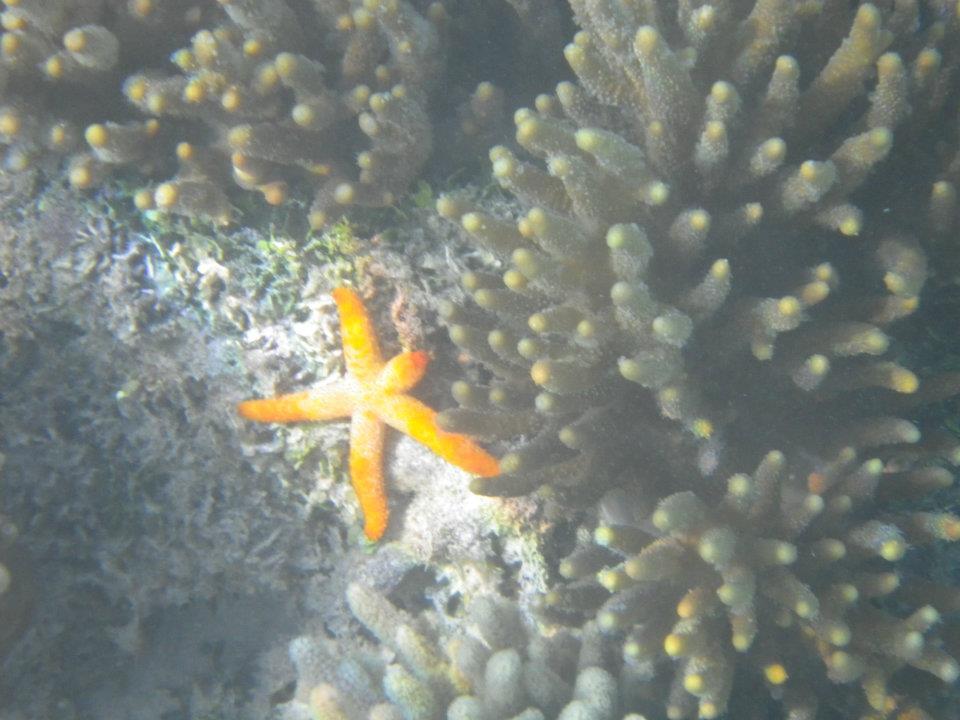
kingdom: Animalia
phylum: Echinodermata
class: Asteroidea
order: Spinulosida
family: Echinasteridae
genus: Echinaster
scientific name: Echinaster luzonicus
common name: Luzon seastar
